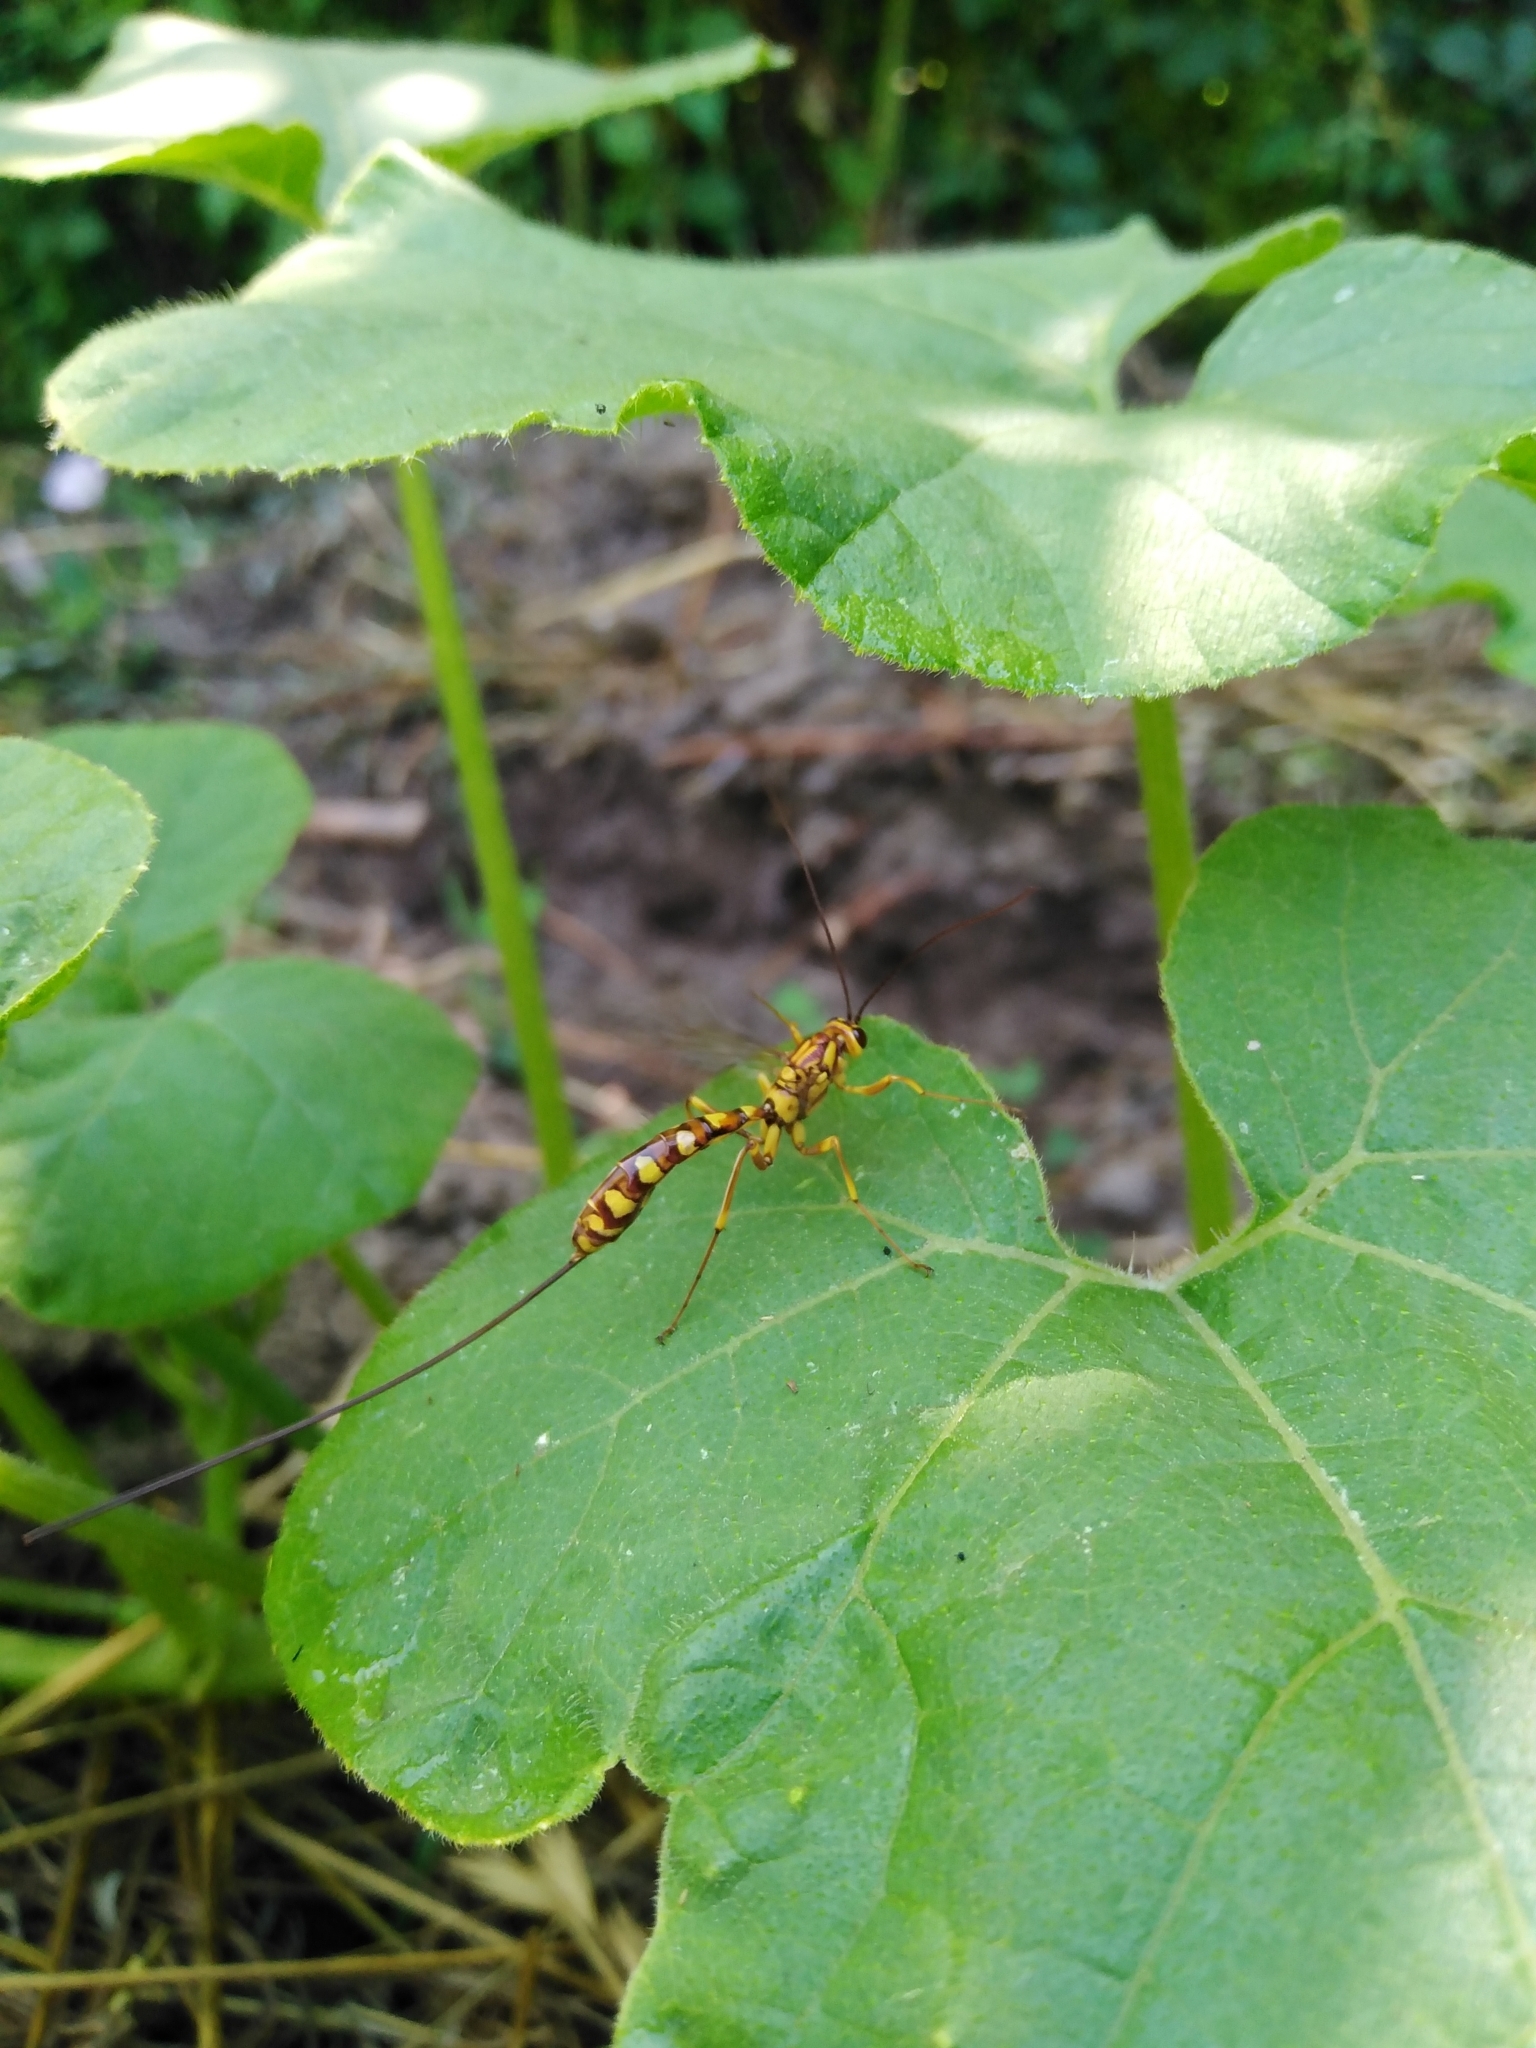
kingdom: Animalia
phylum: Arthropoda
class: Insecta
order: Hymenoptera
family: Ichneumonidae
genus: Megarhyssa
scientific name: Megarhyssa praecellens
